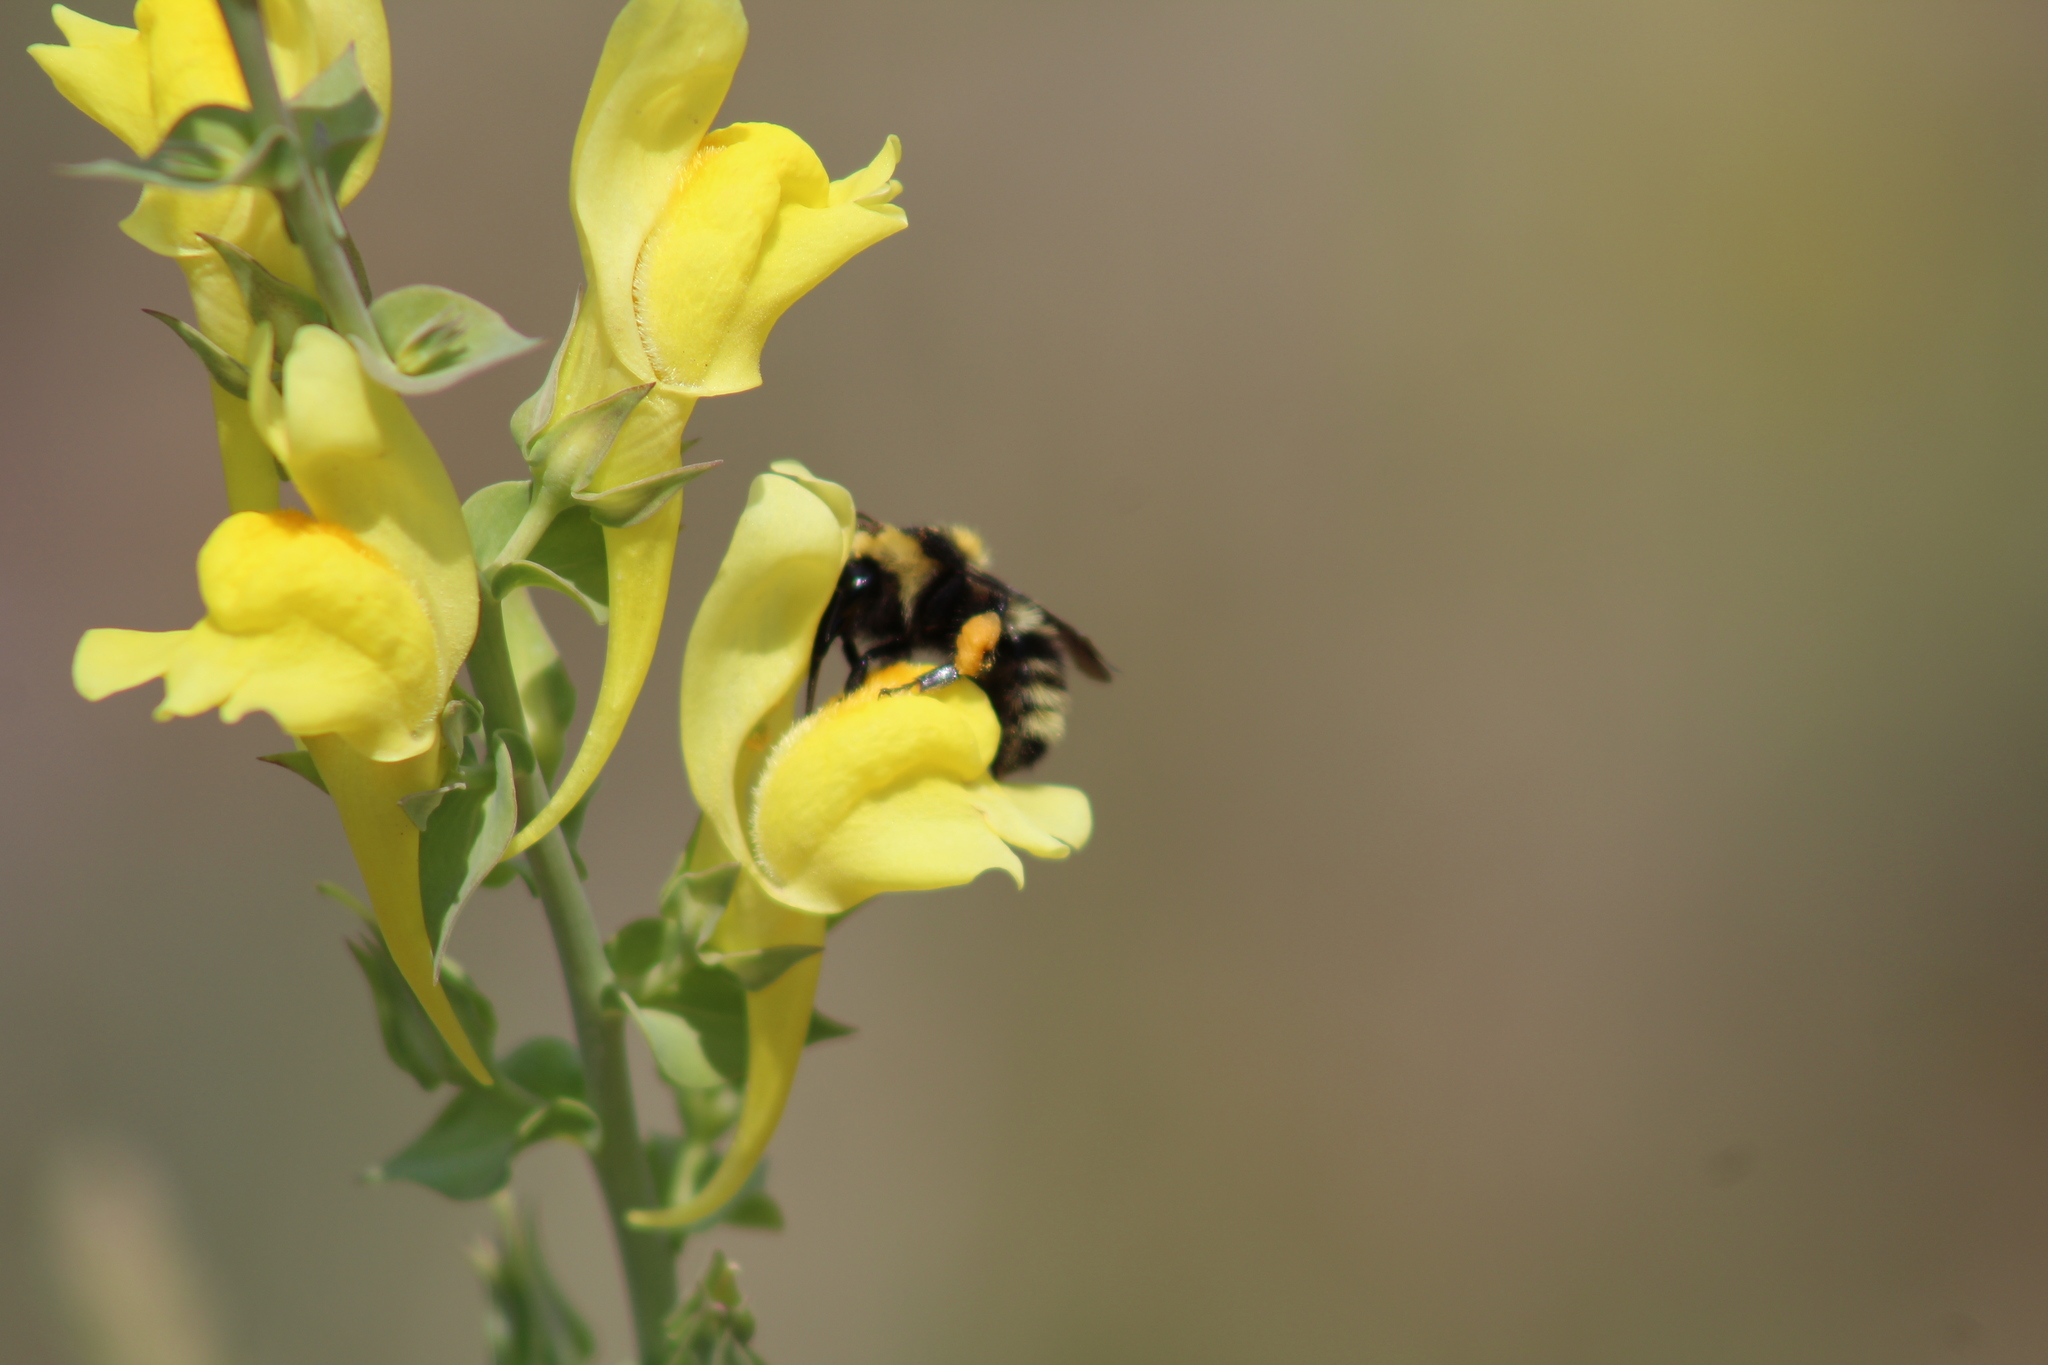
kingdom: Plantae
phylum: Tracheophyta
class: Magnoliopsida
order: Lamiales
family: Plantaginaceae
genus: Linaria
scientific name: Linaria dalmatica
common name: Dalmatian toadflax
